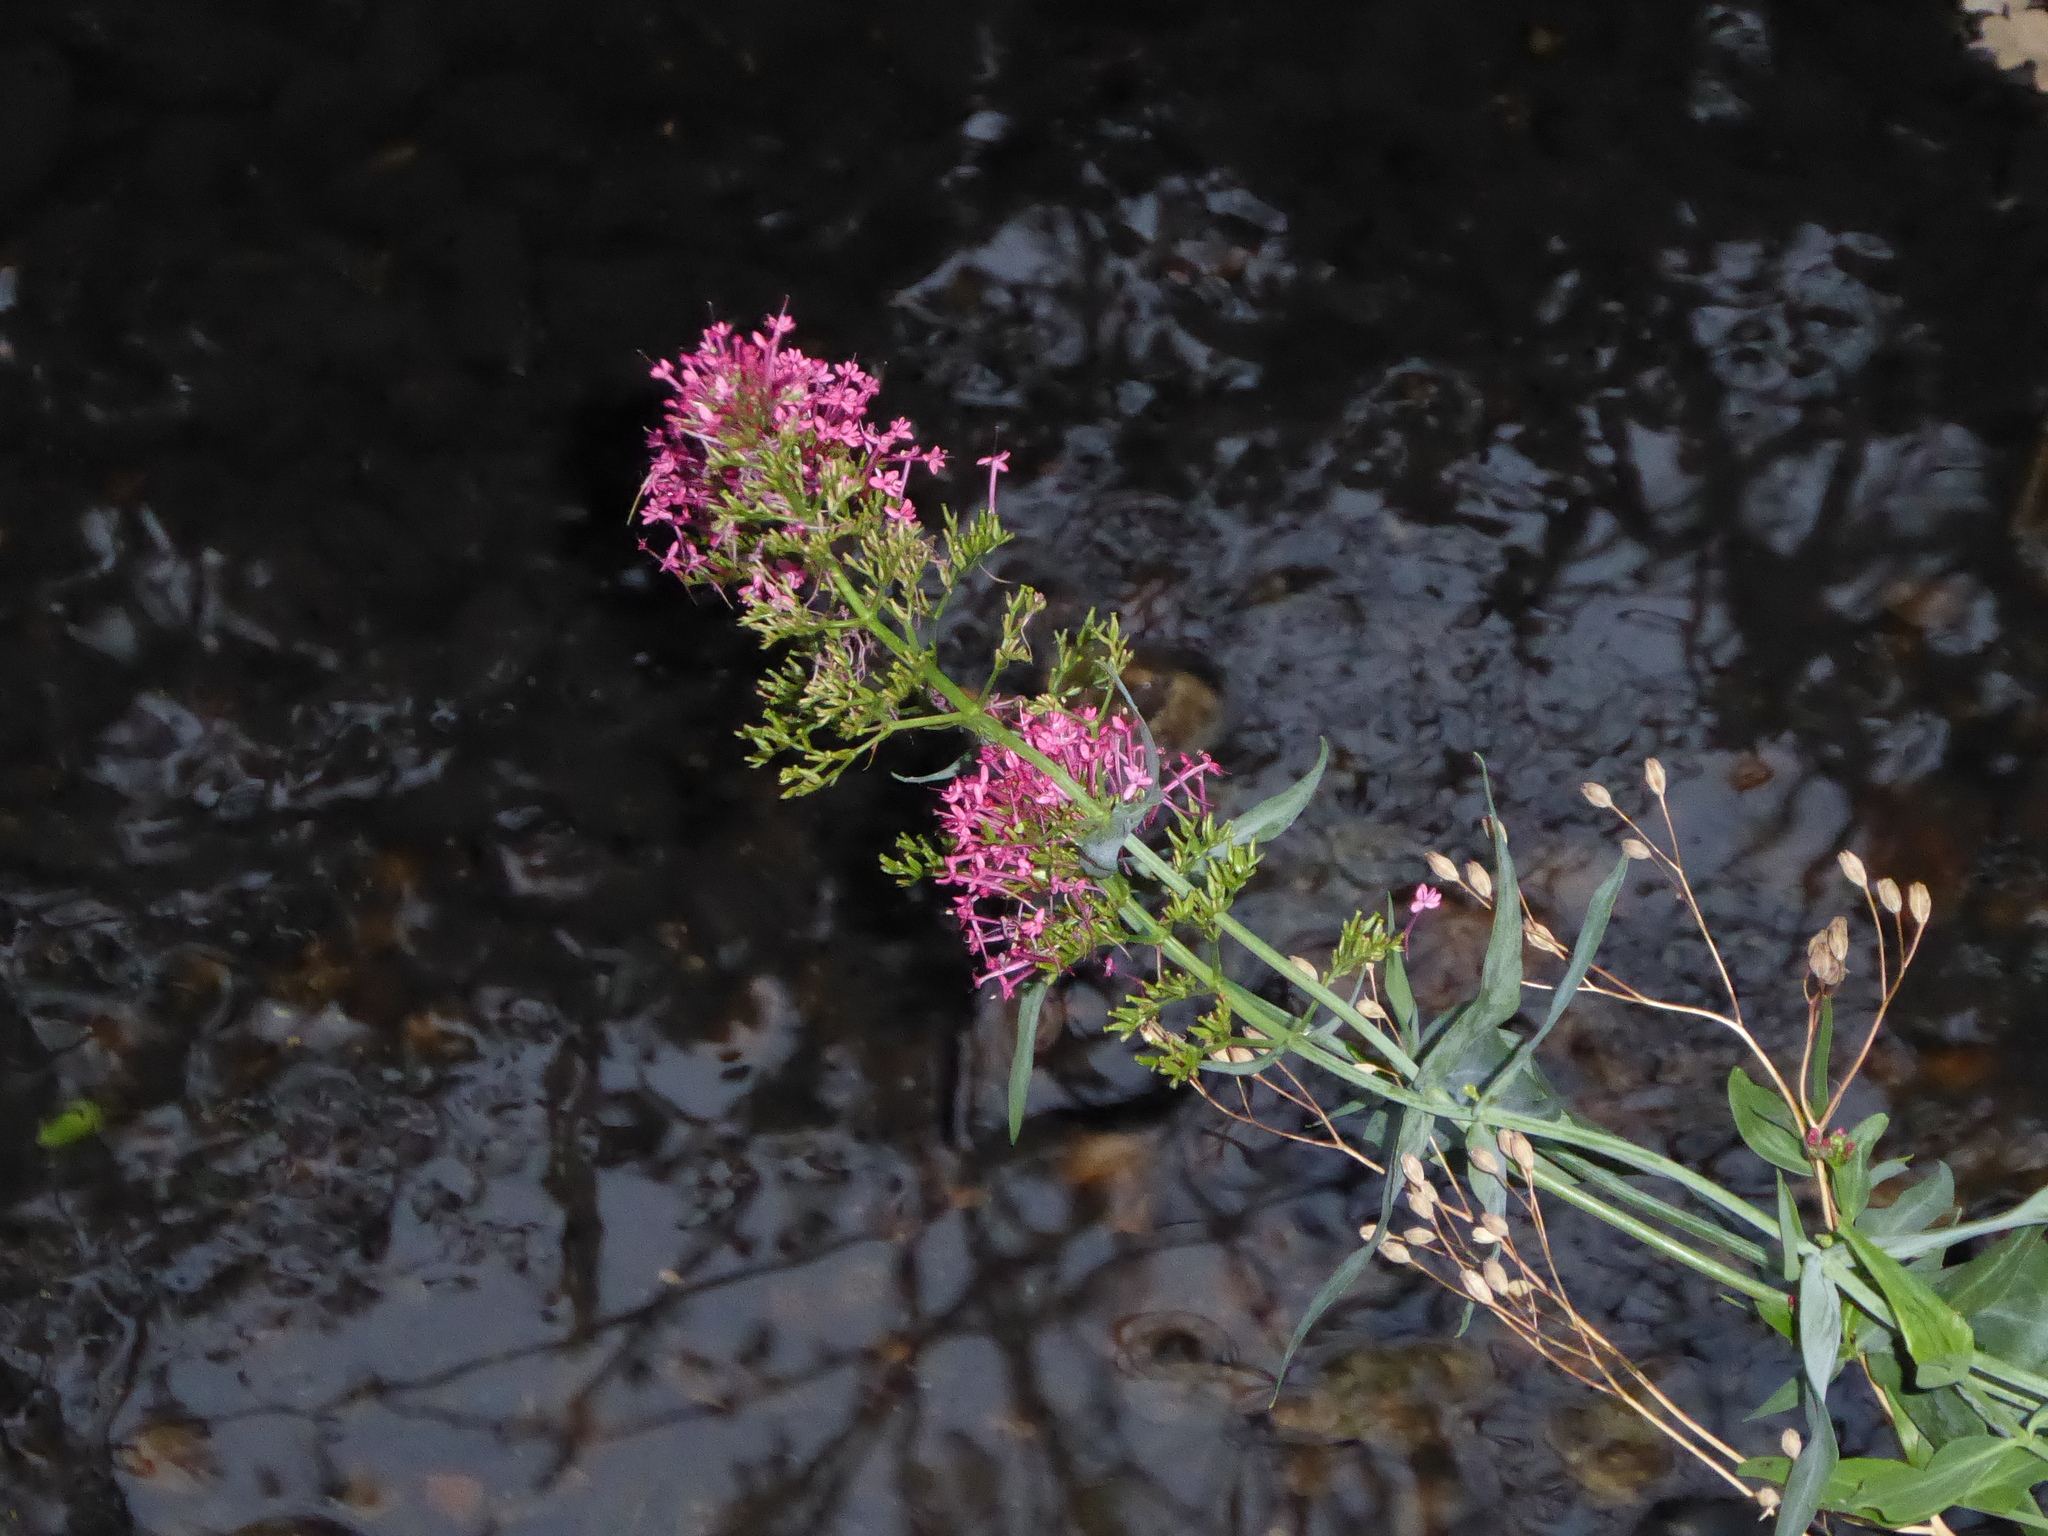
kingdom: Plantae
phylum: Tracheophyta
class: Magnoliopsida
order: Dipsacales
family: Caprifoliaceae
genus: Centranthus
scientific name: Centranthus ruber
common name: Red valerian
